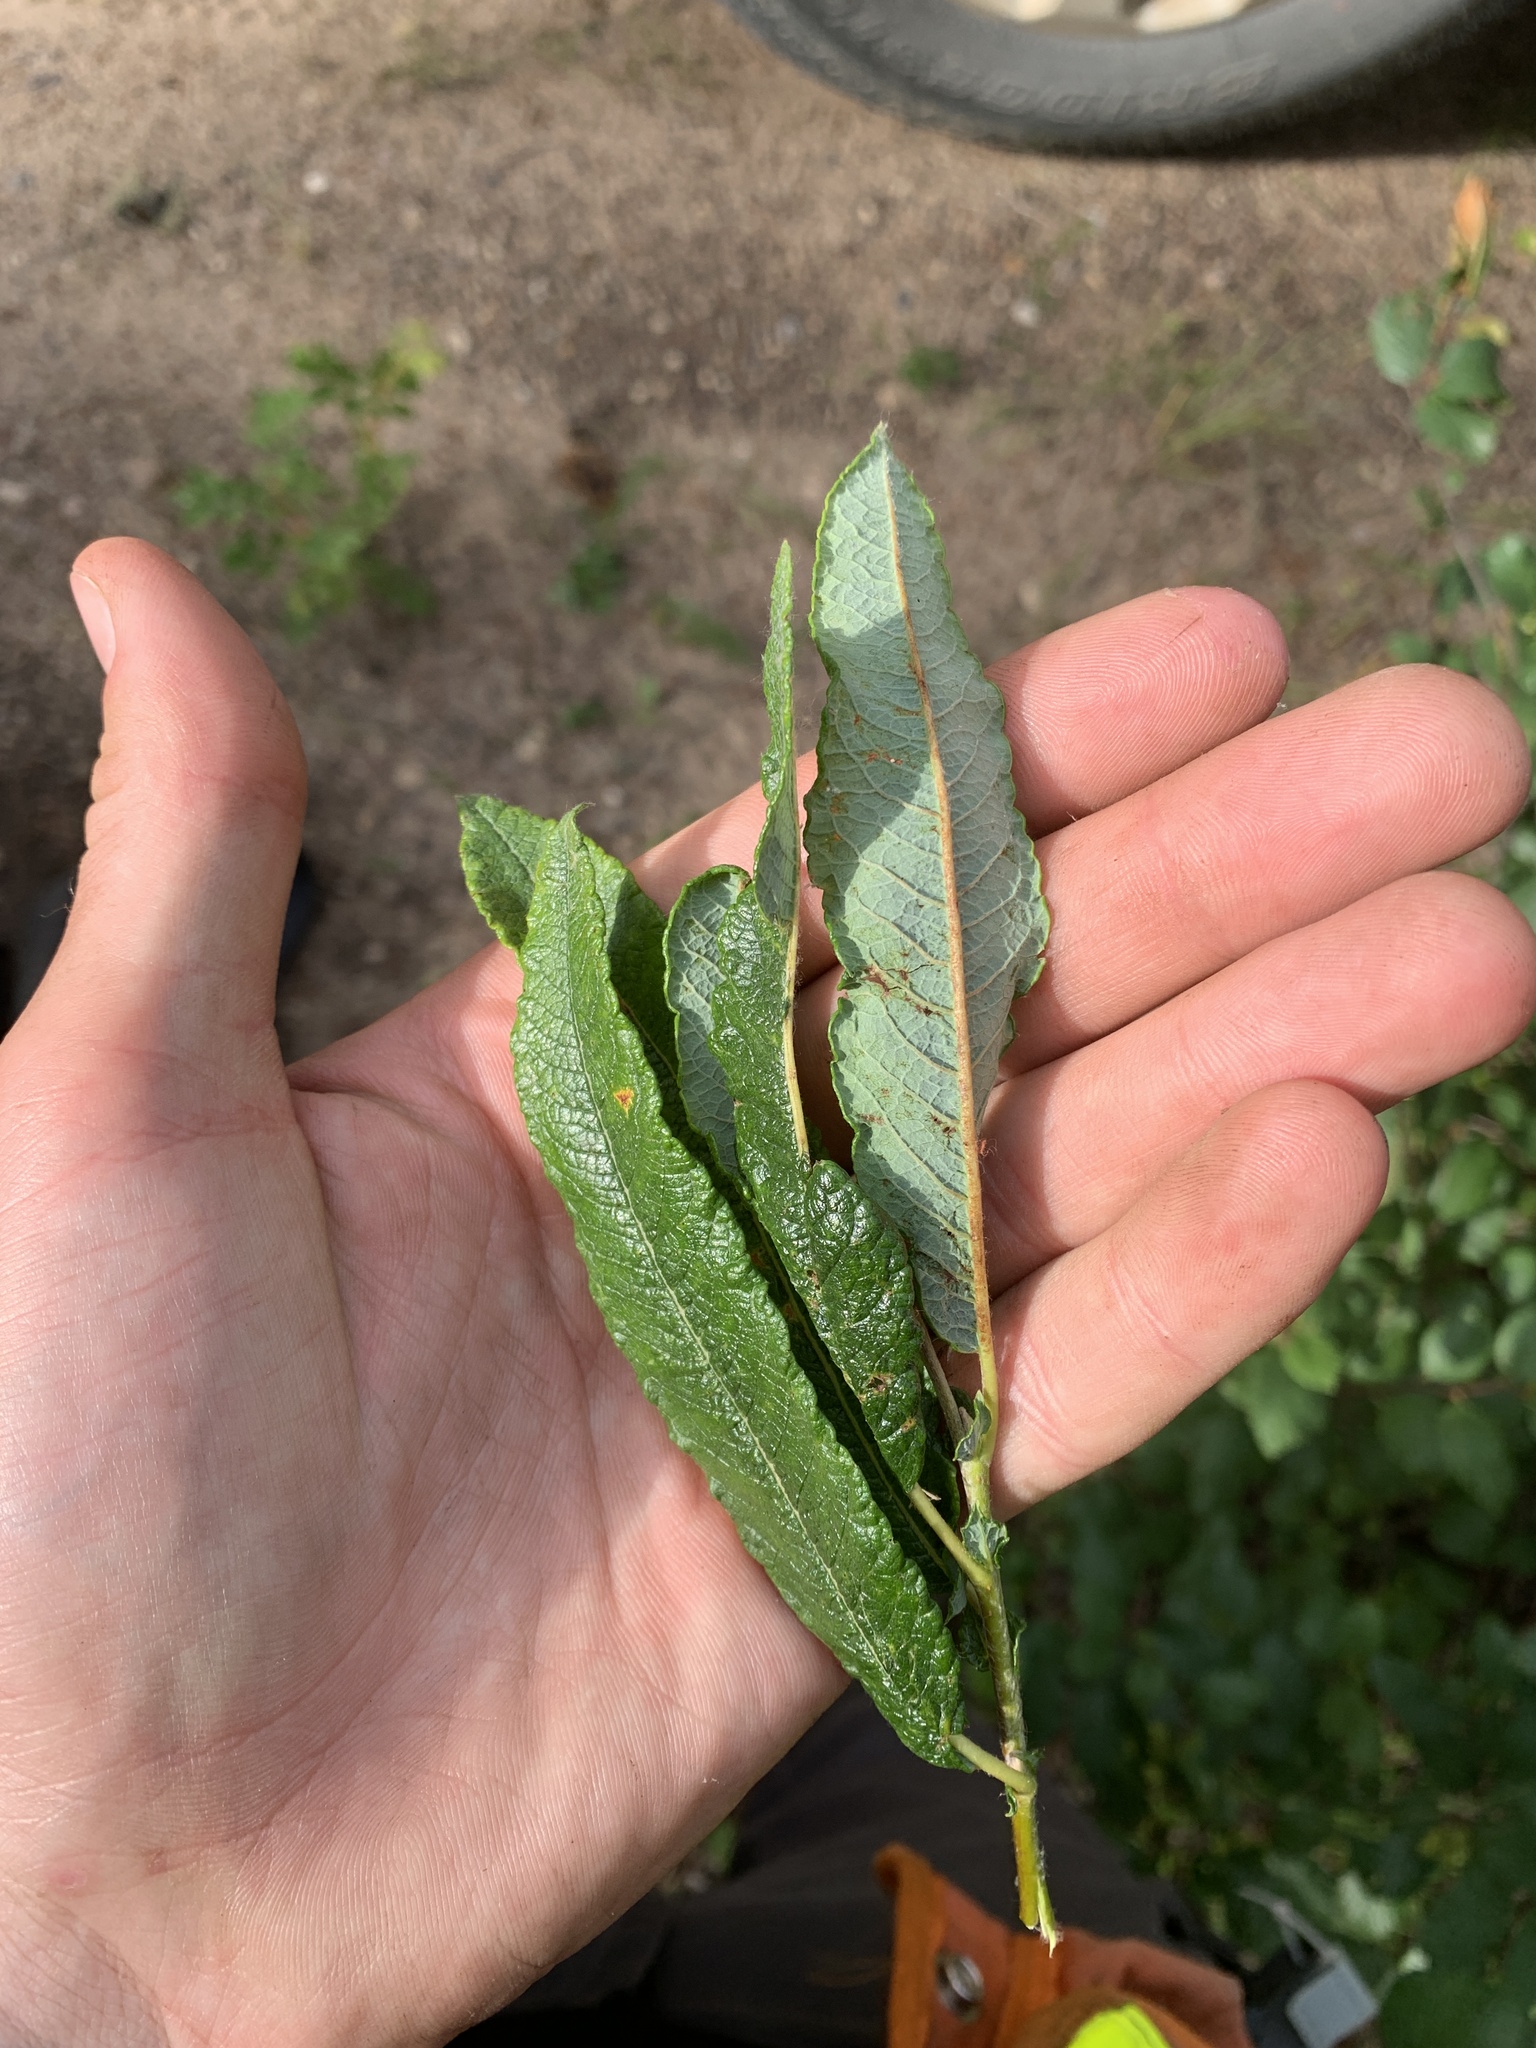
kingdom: Plantae
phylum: Tracheophyta
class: Magnoliopsida
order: Malpighiales
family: Salicaceae
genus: Salix
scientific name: Salix candida
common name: Hoary willow
